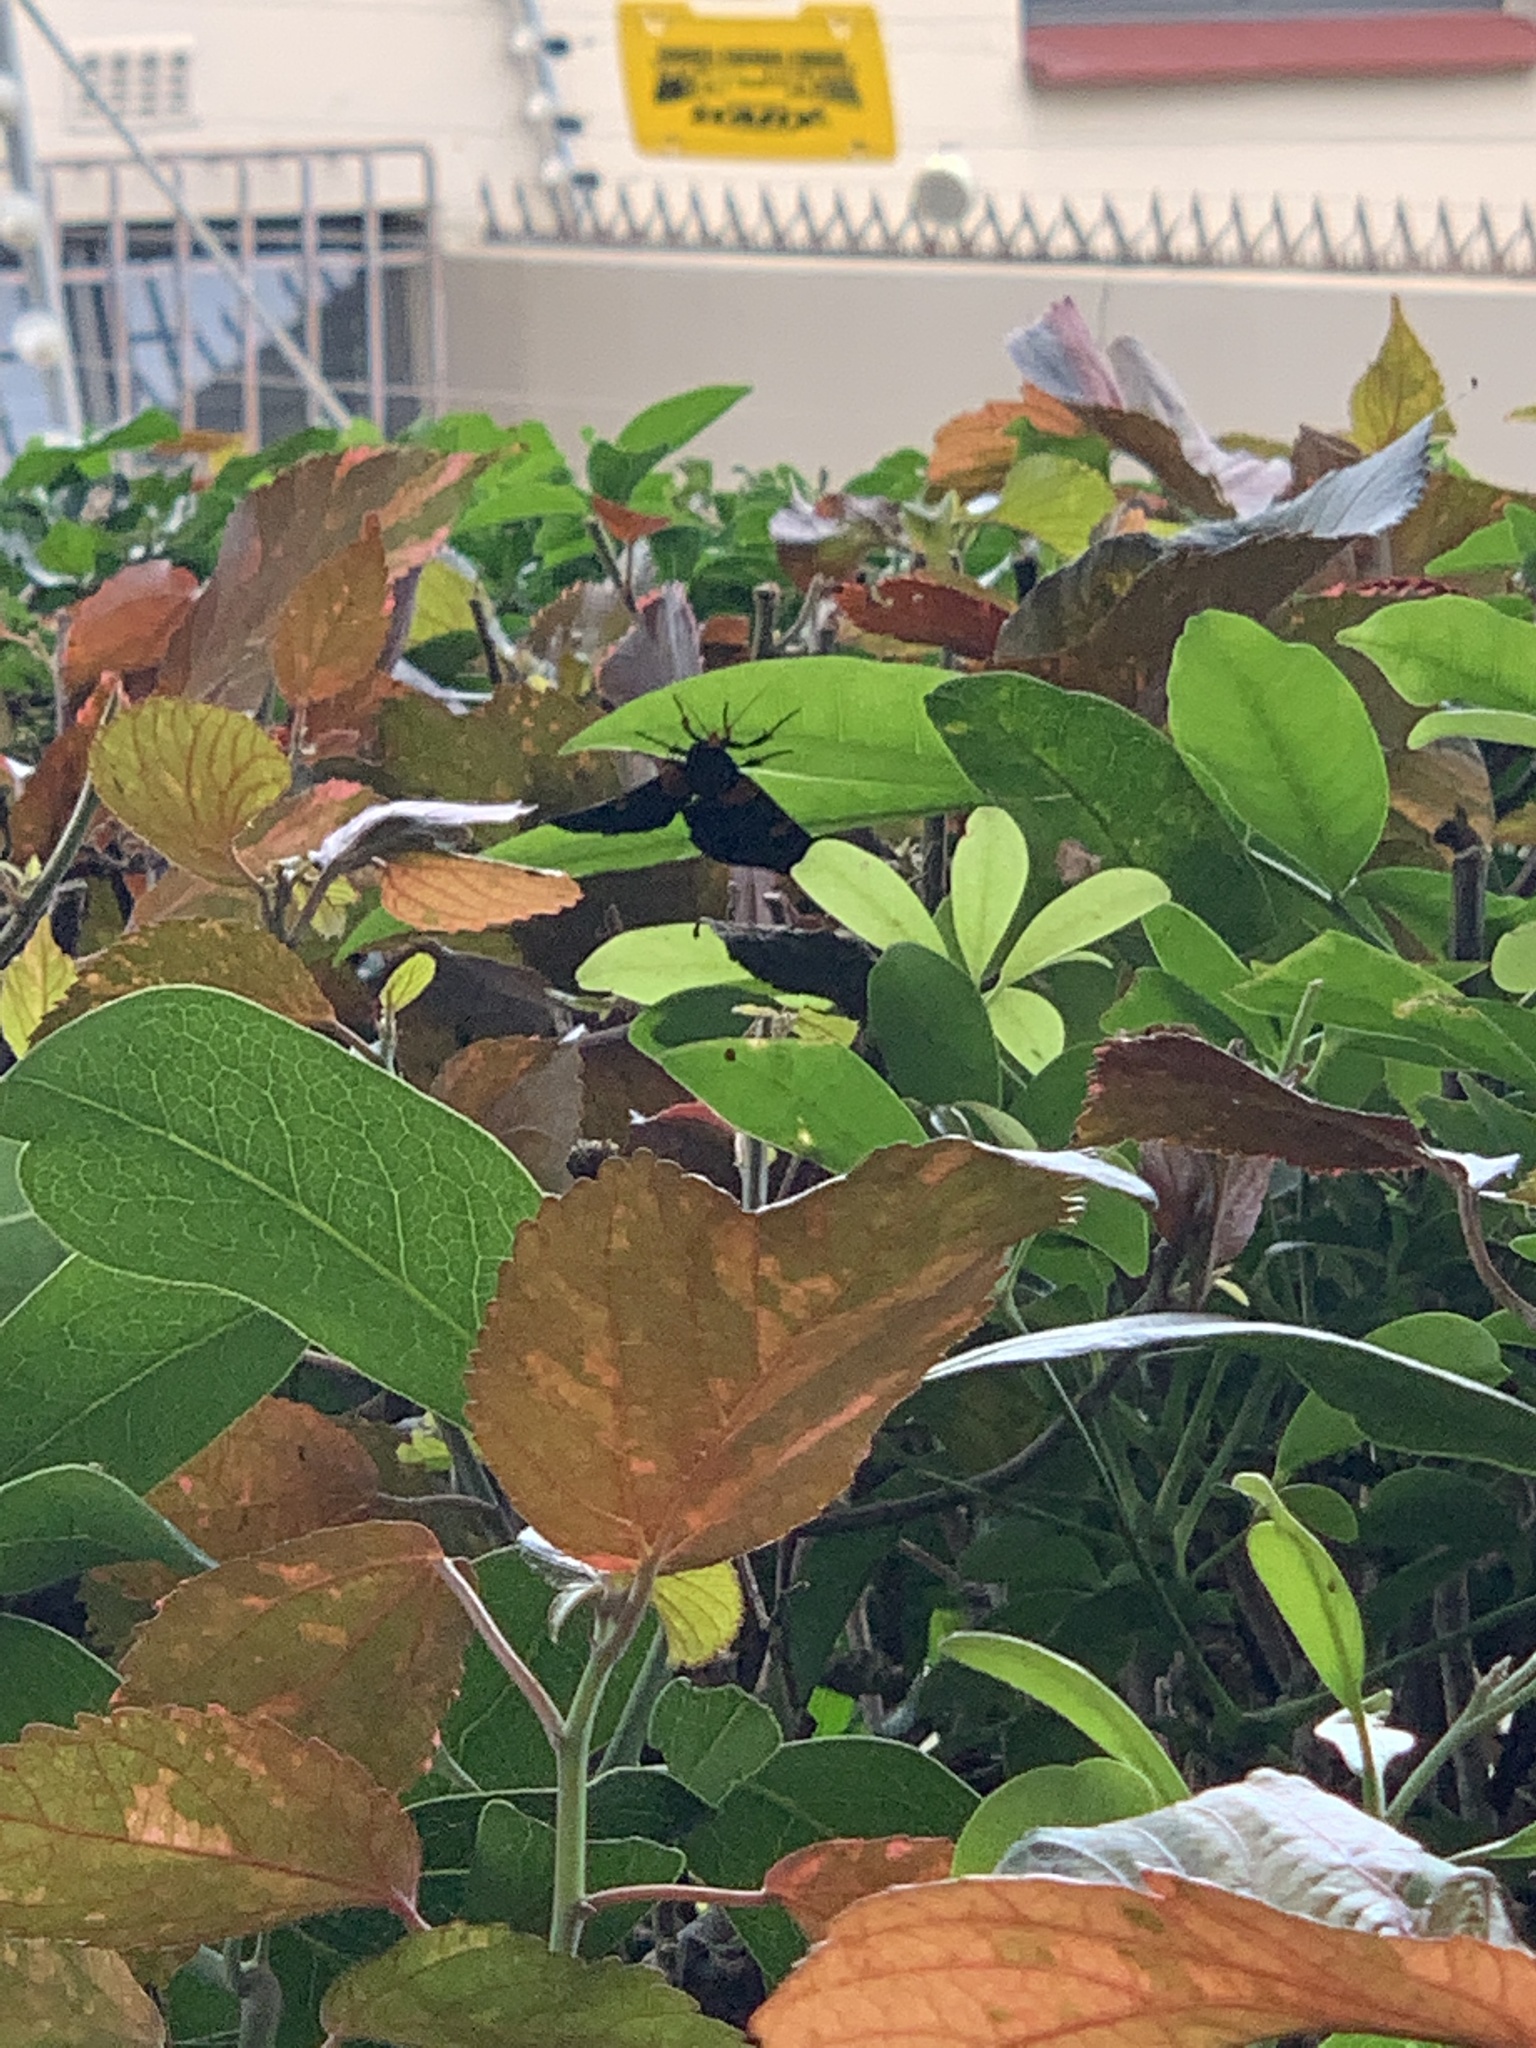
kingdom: Animalia
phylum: Arthropoda
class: Insecta
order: Lepidoptera
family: Erebidae
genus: Egybolis
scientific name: Egybolis vaillantina
